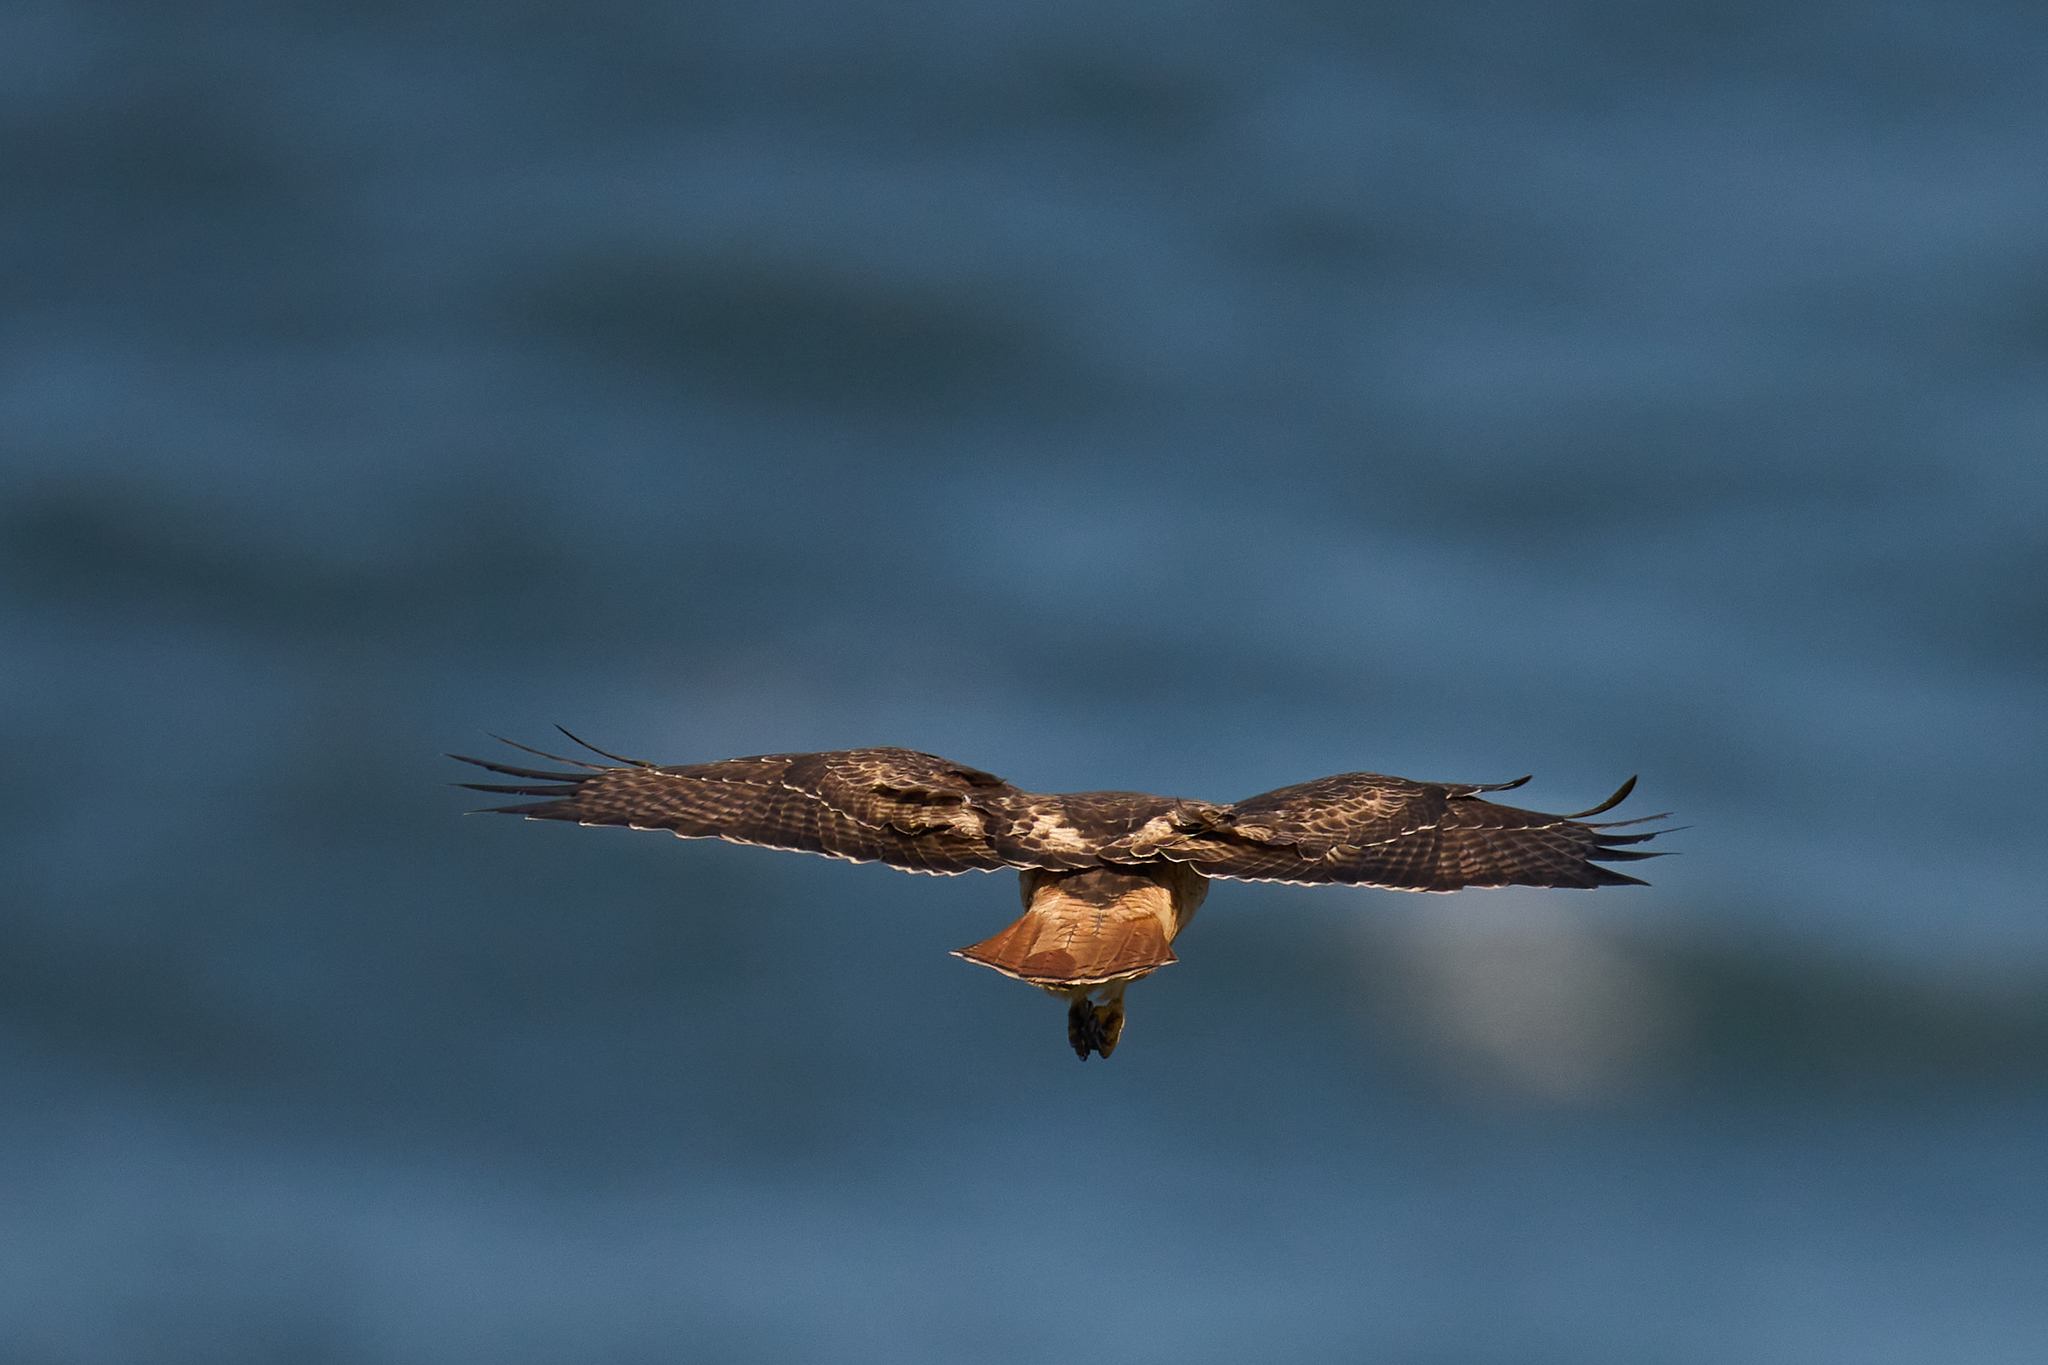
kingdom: Animalia
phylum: Chordata
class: Aves
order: Accipitriformes
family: Accipitridae
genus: Buteo
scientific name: Buteo jamaicensis
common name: Red-tailed hawk
